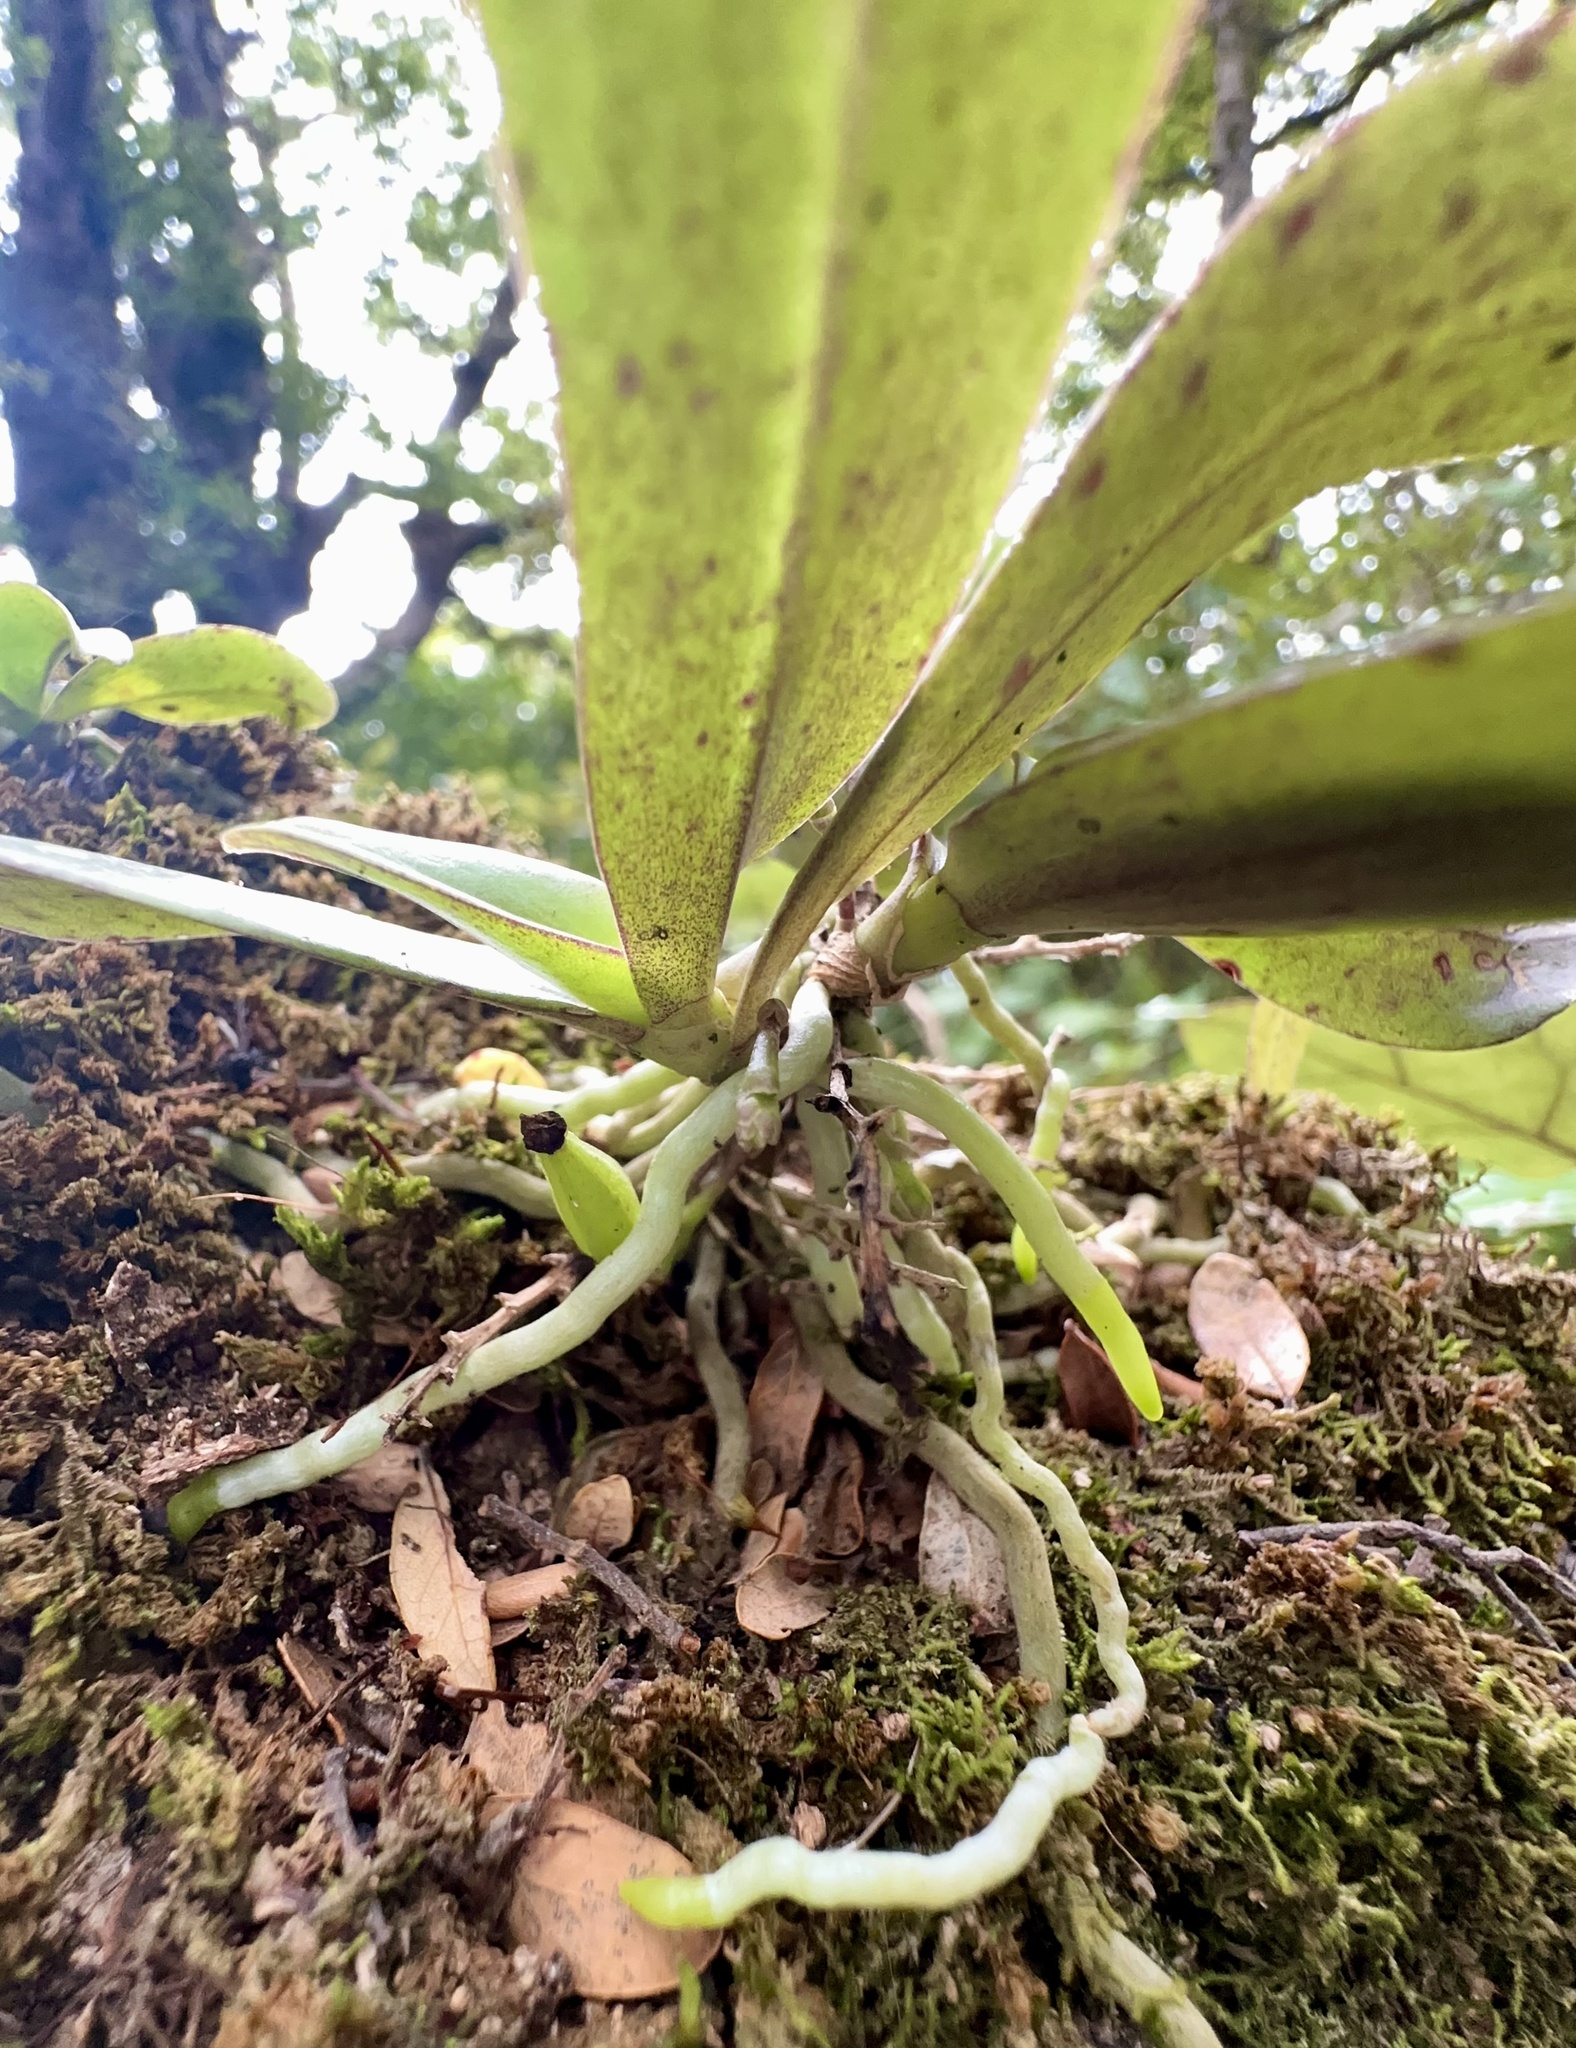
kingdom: Plantae
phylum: Tracheophyta
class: Liliopsida
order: Asparagales
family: Orchidaceae
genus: Drymoanthus
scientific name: Drymoanthus adversus
